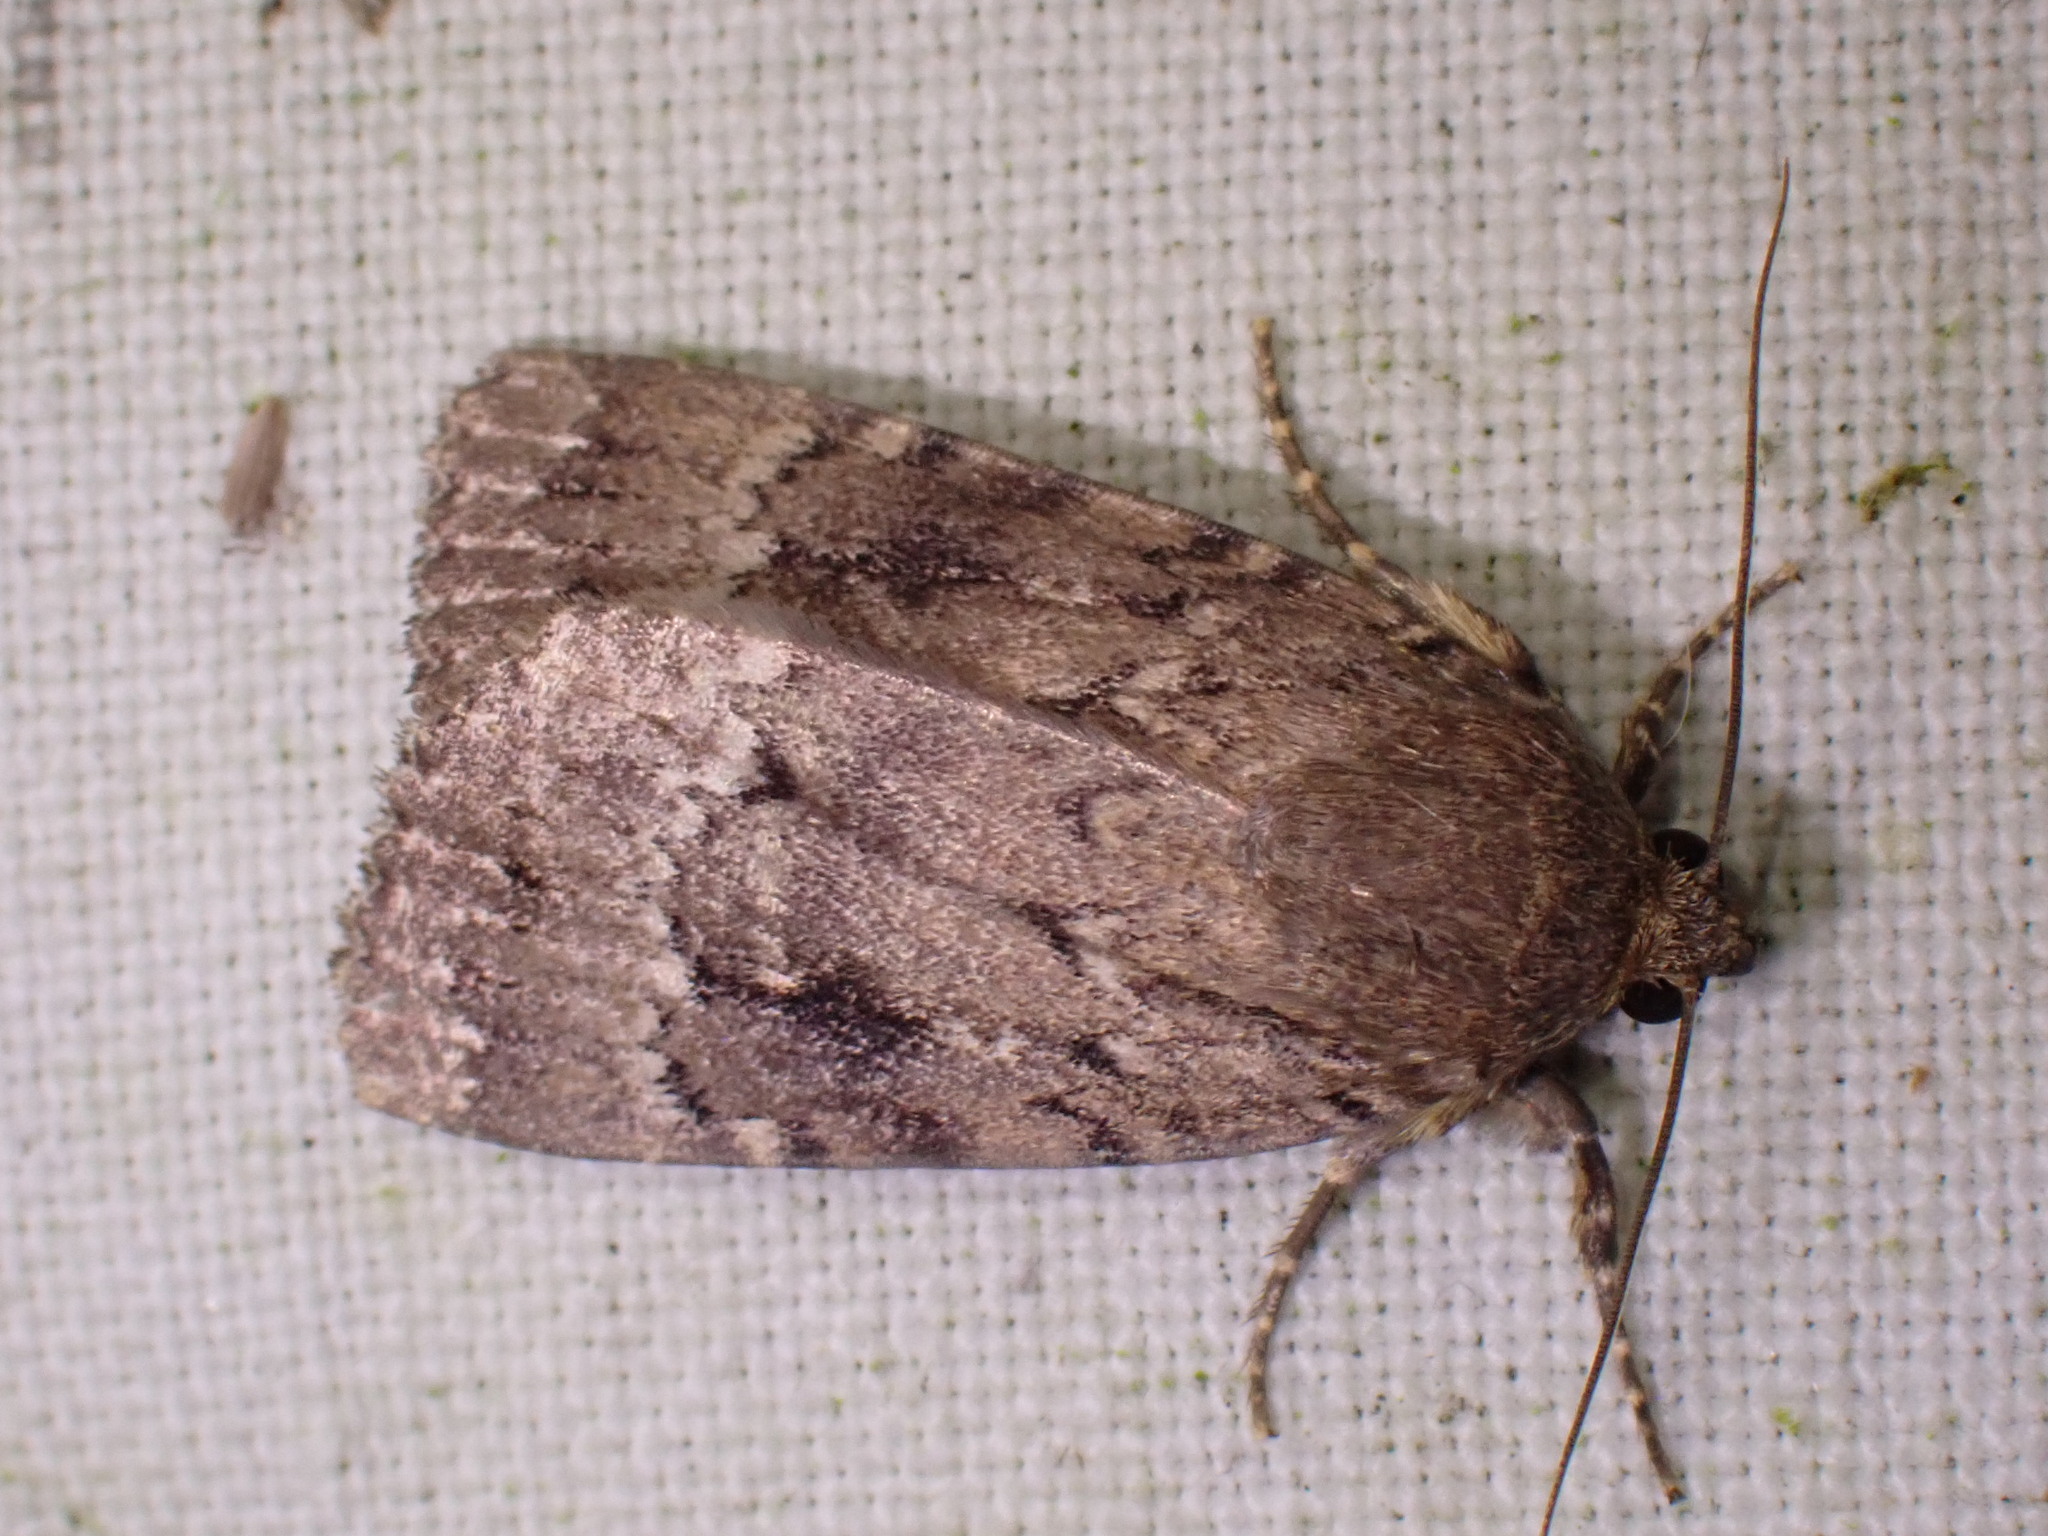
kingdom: Animalia
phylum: Arthropoda
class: Insecta
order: Lepidoptera
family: Noctuidae
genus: Amphipyra
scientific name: Amphipyra pyramidea
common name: Copper underwing
